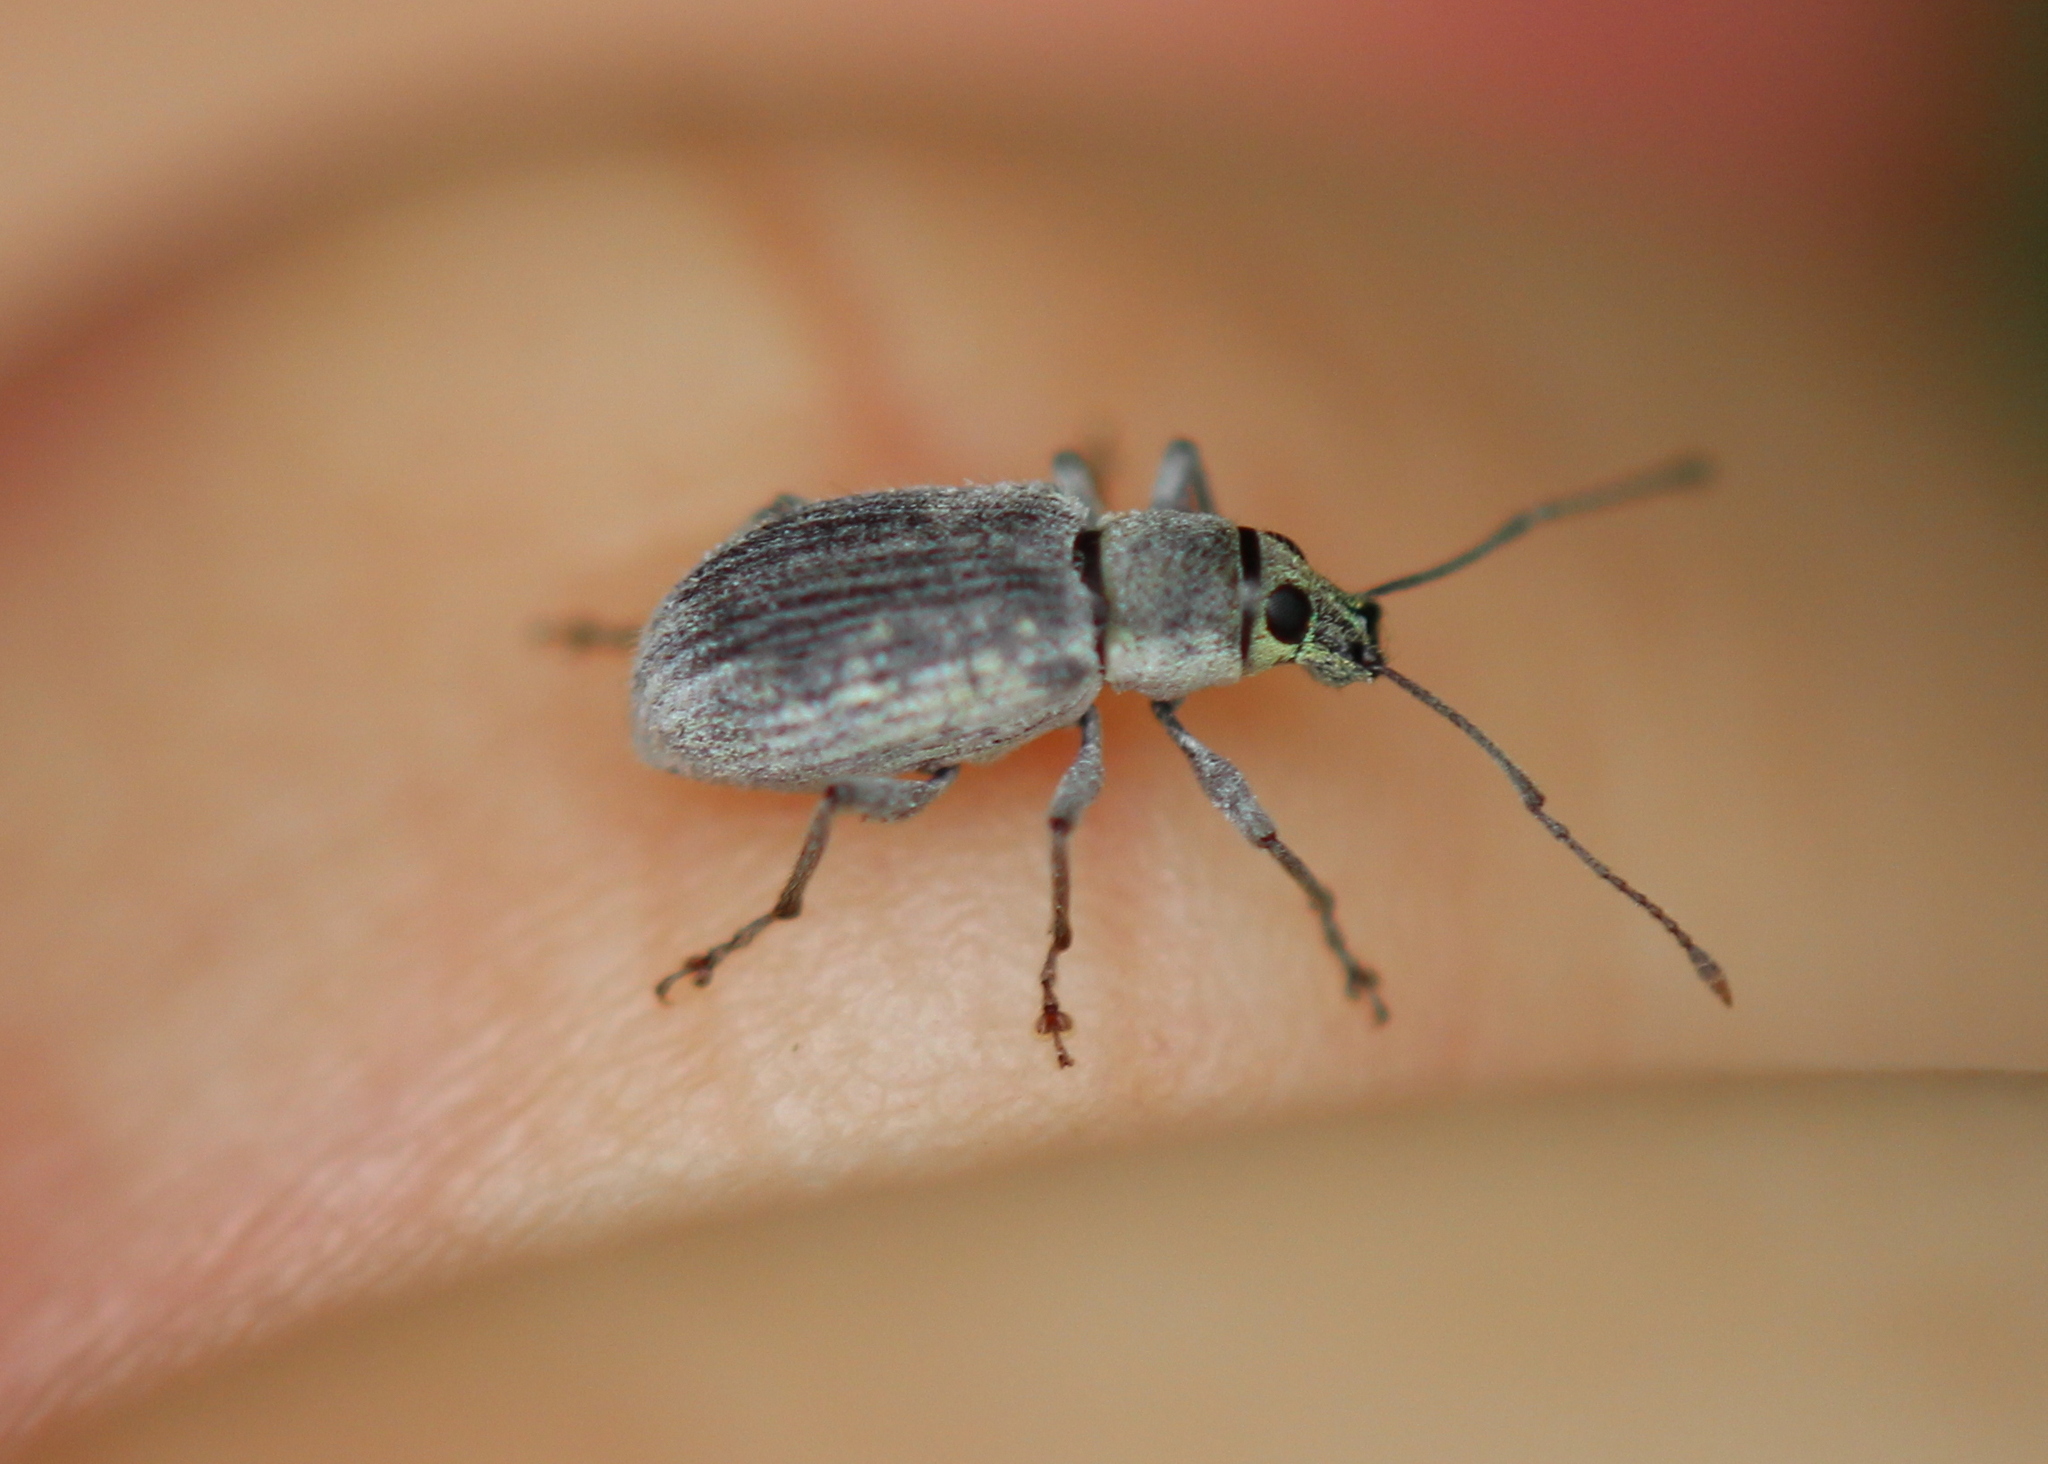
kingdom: Animalia
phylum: Arthropoda
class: Insecta
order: Coleoptera
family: Curculionidae
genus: Cyrtepistomus
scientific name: Cyrtepistomus castaneus
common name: Weevil
